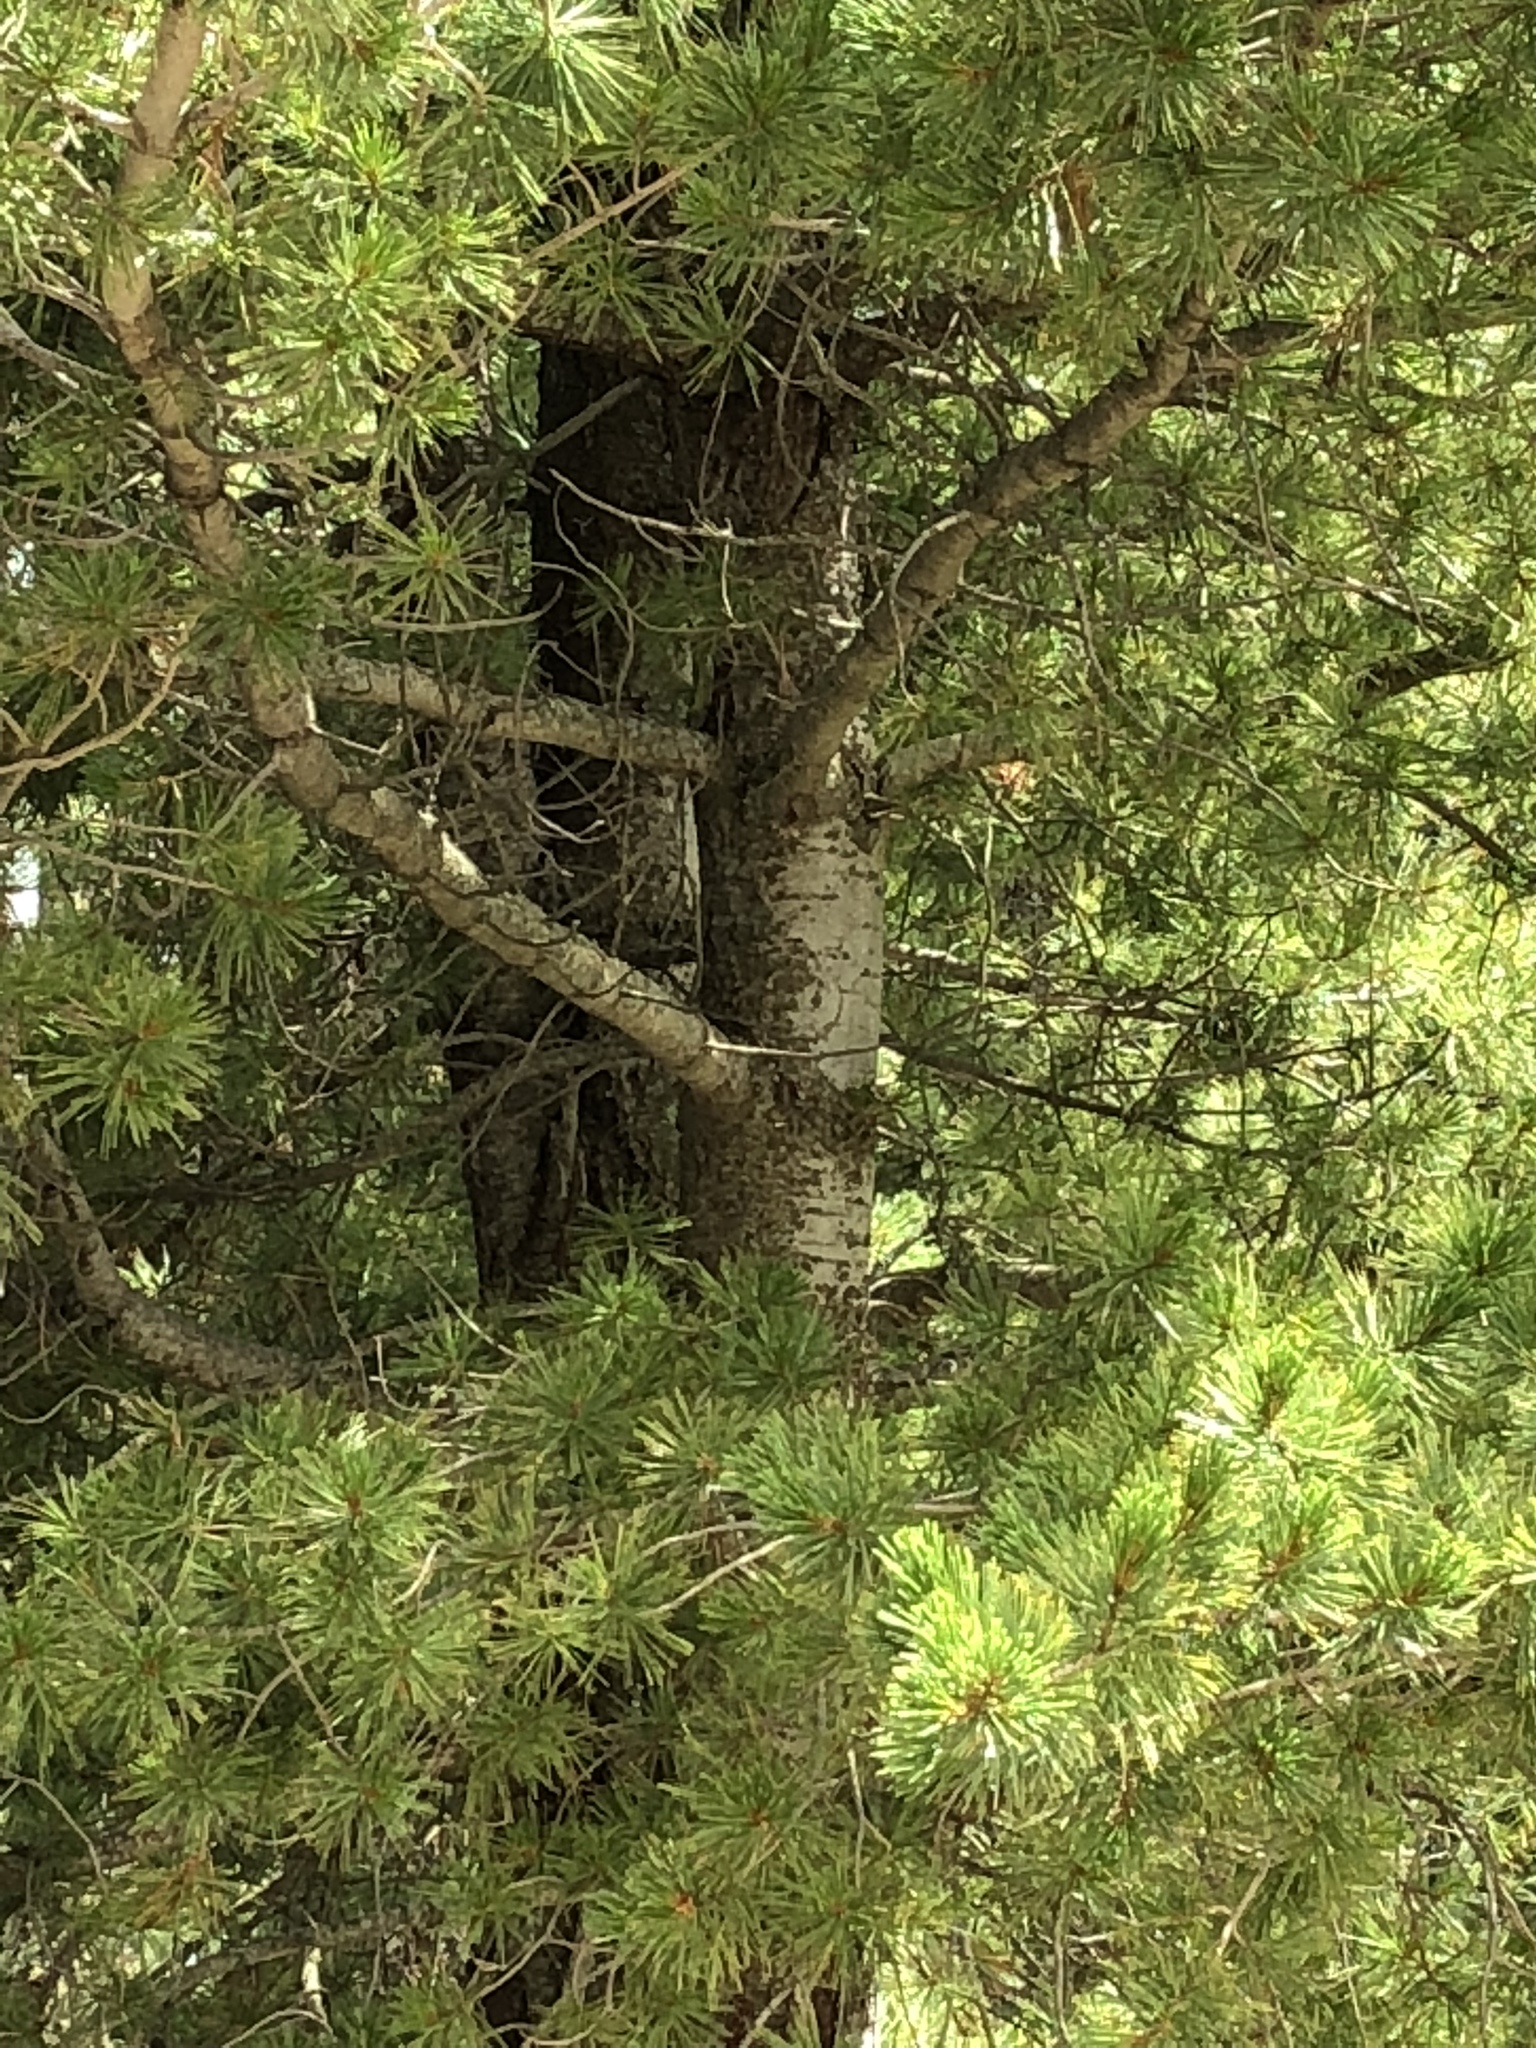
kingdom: Plantae
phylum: Tracheophyta
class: Pinopsida
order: Pinales
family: Pinaceae
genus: Pinus
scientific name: Pinus strobiformis
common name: Southwestern white pine
